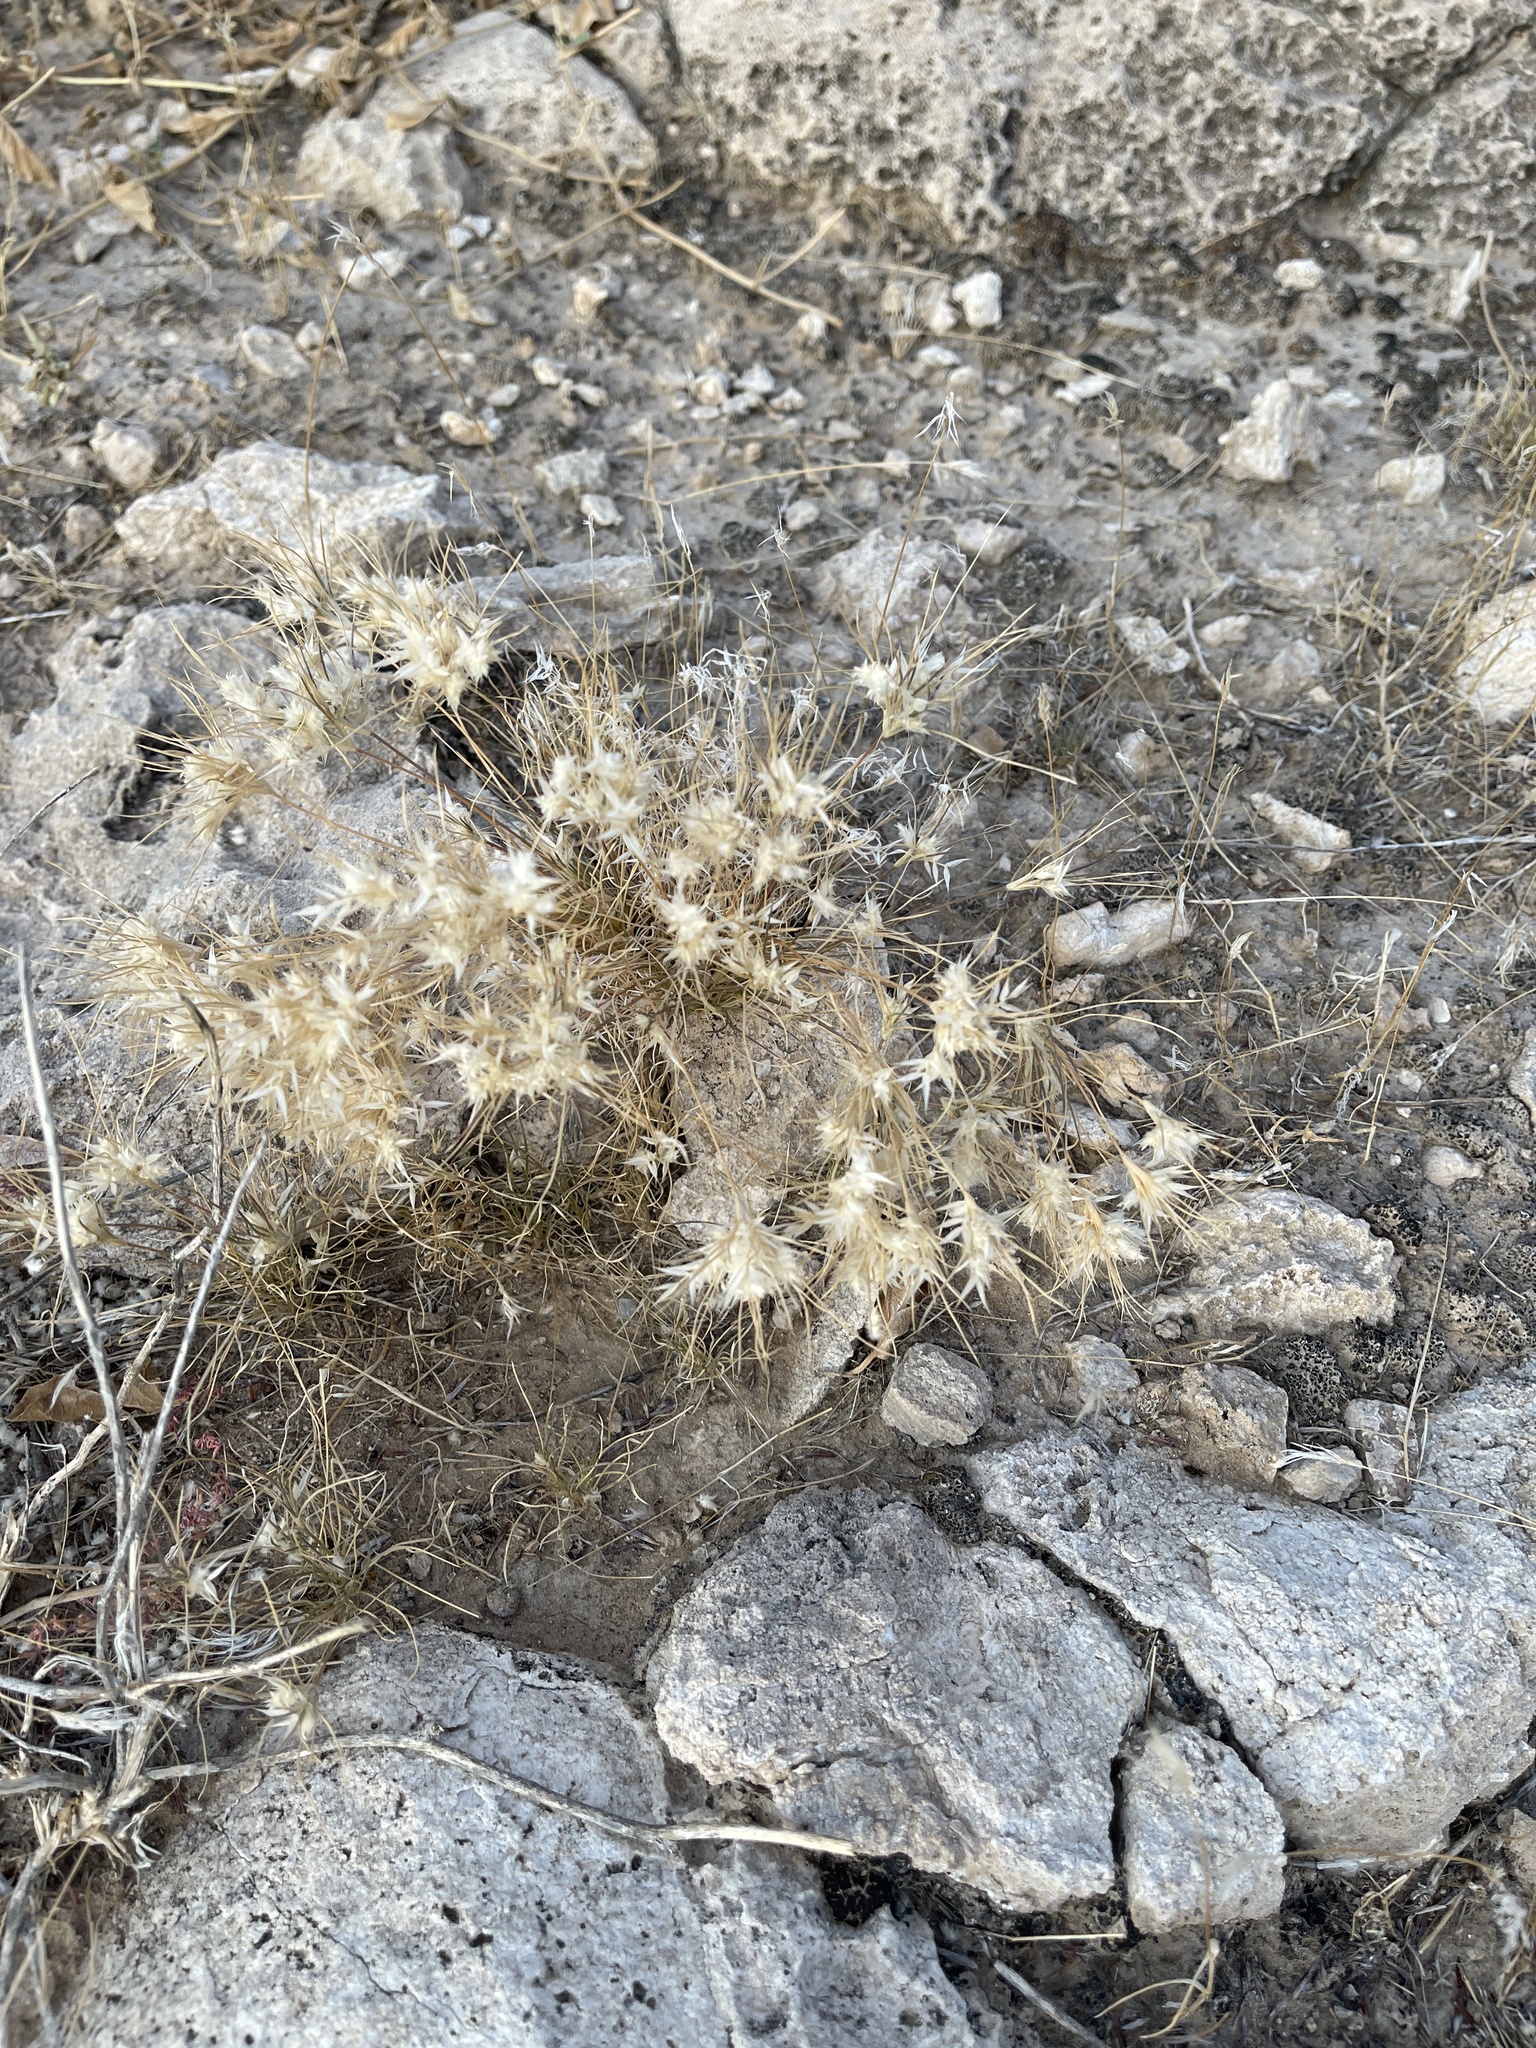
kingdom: Plantae
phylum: Tracheophyta
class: Liliopsida
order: Poales
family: Poaceae
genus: Dasyochloa
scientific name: Dasyochloa pulchella
